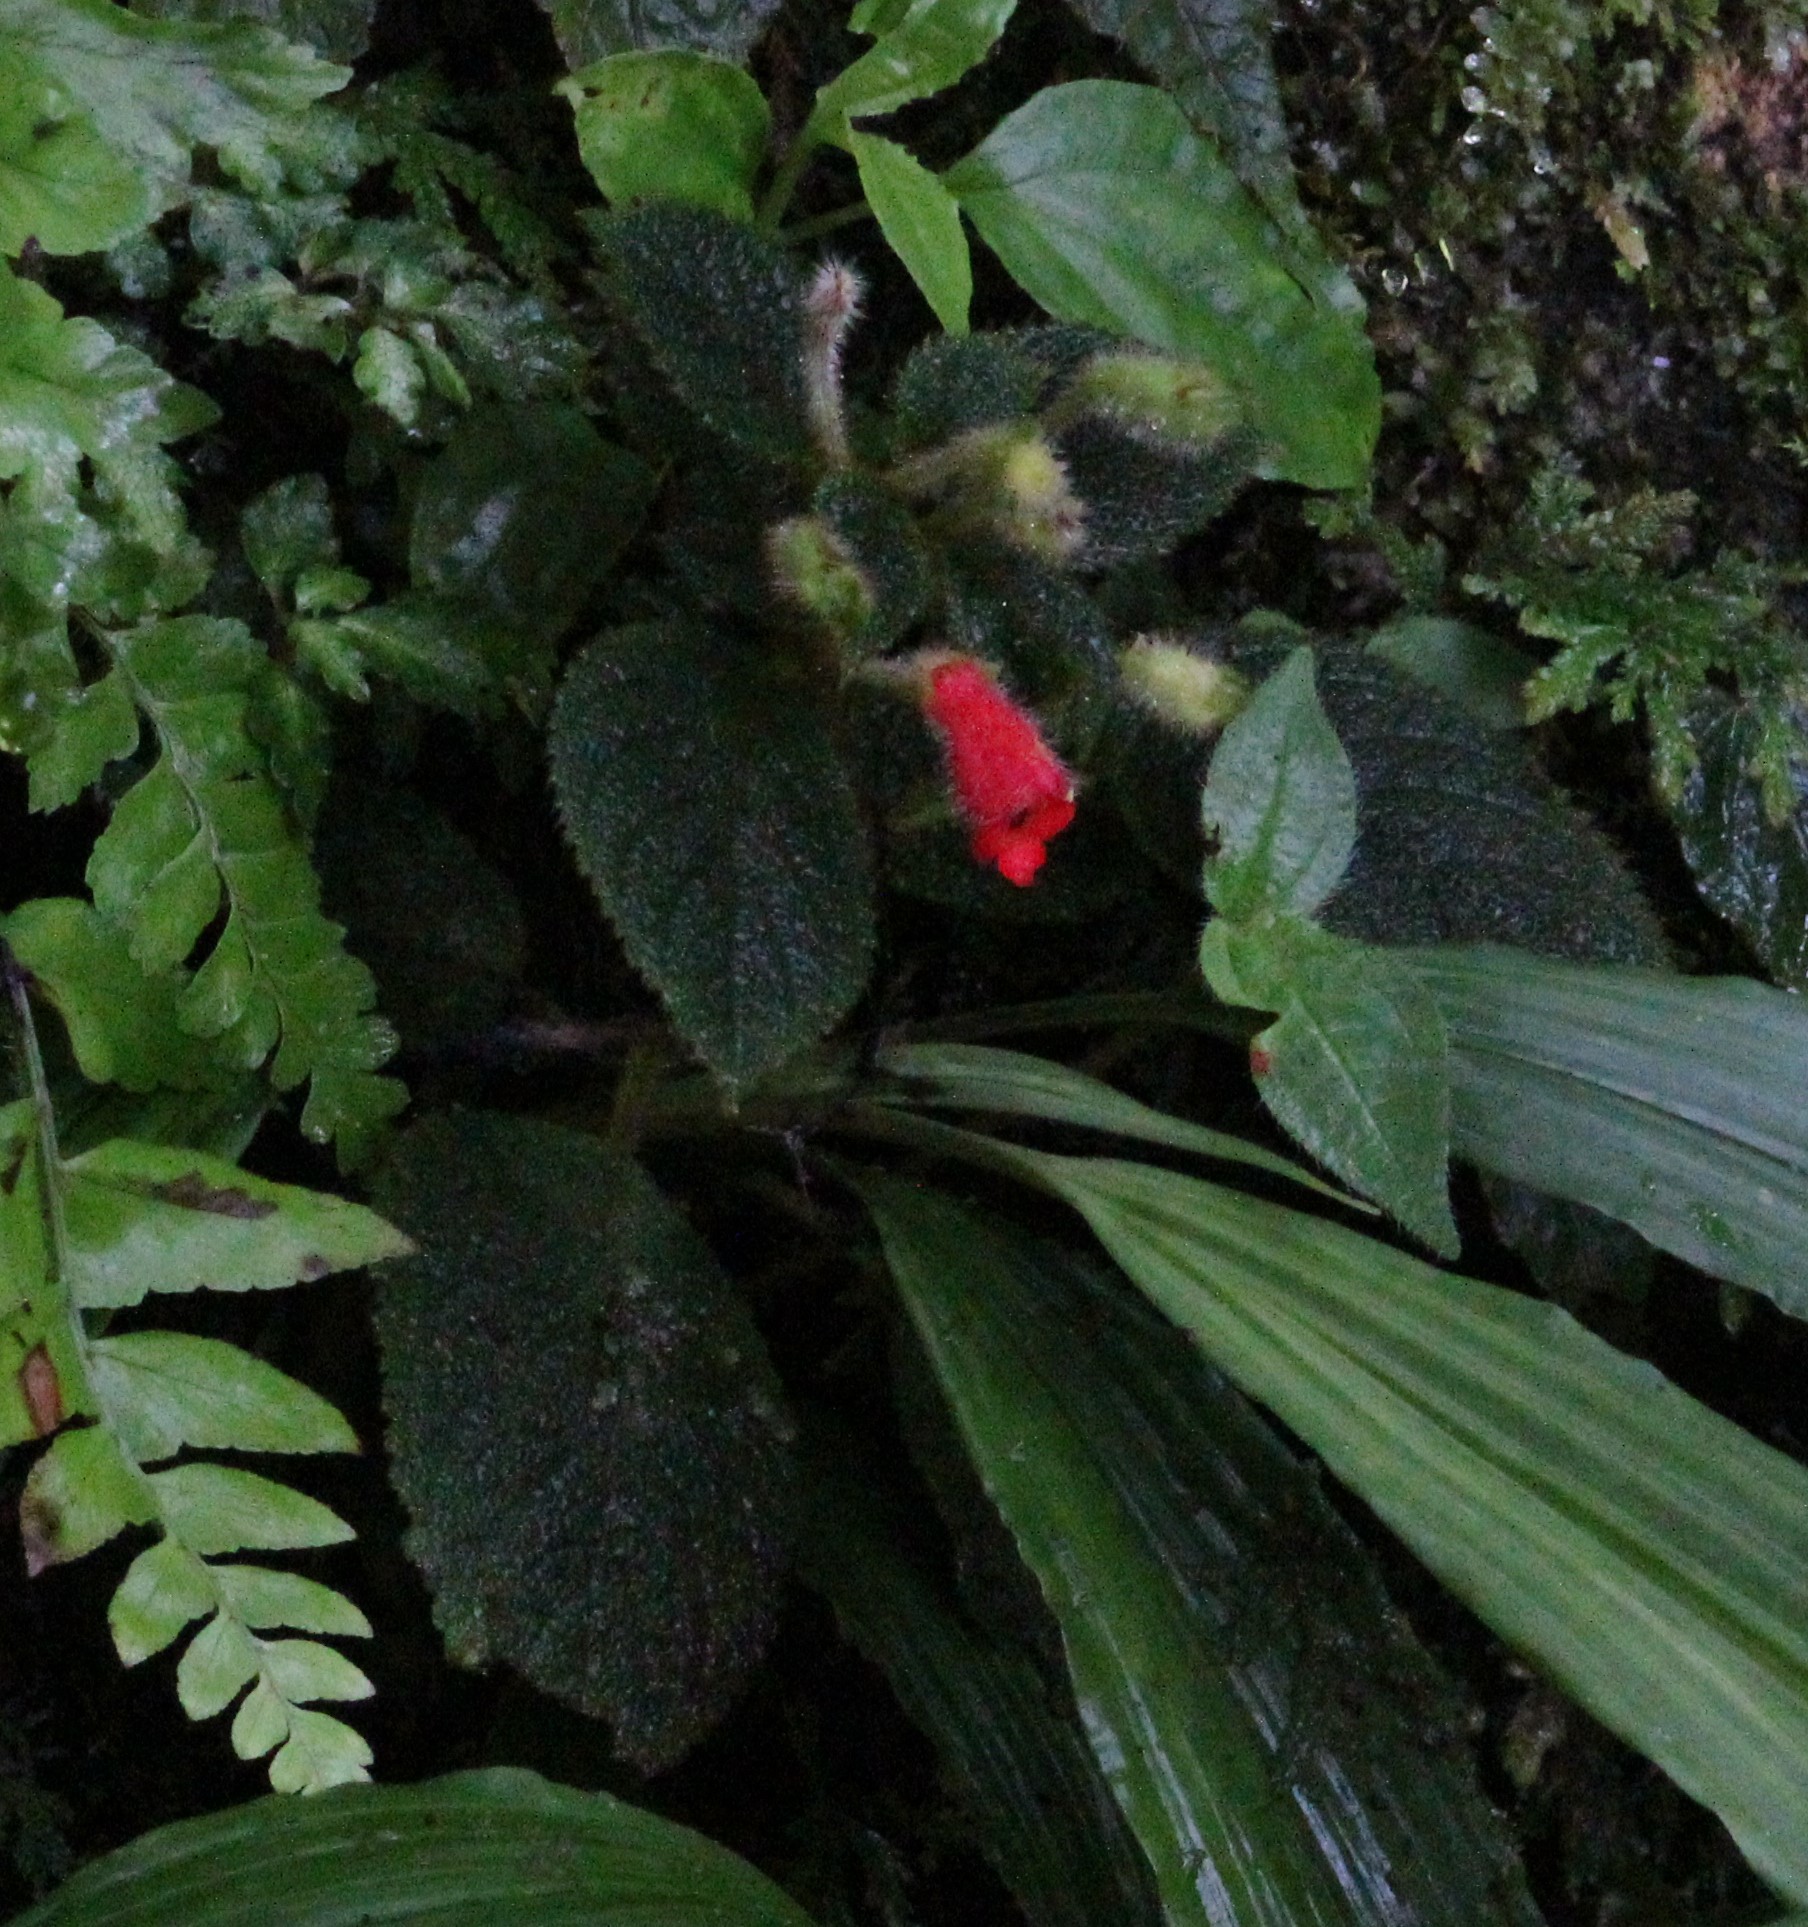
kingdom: Plantae
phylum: Tracheophyta
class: Magnoliopsida
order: Lamiales
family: Gesneriaceae
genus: Kohleria
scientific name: Kohleria villosa
